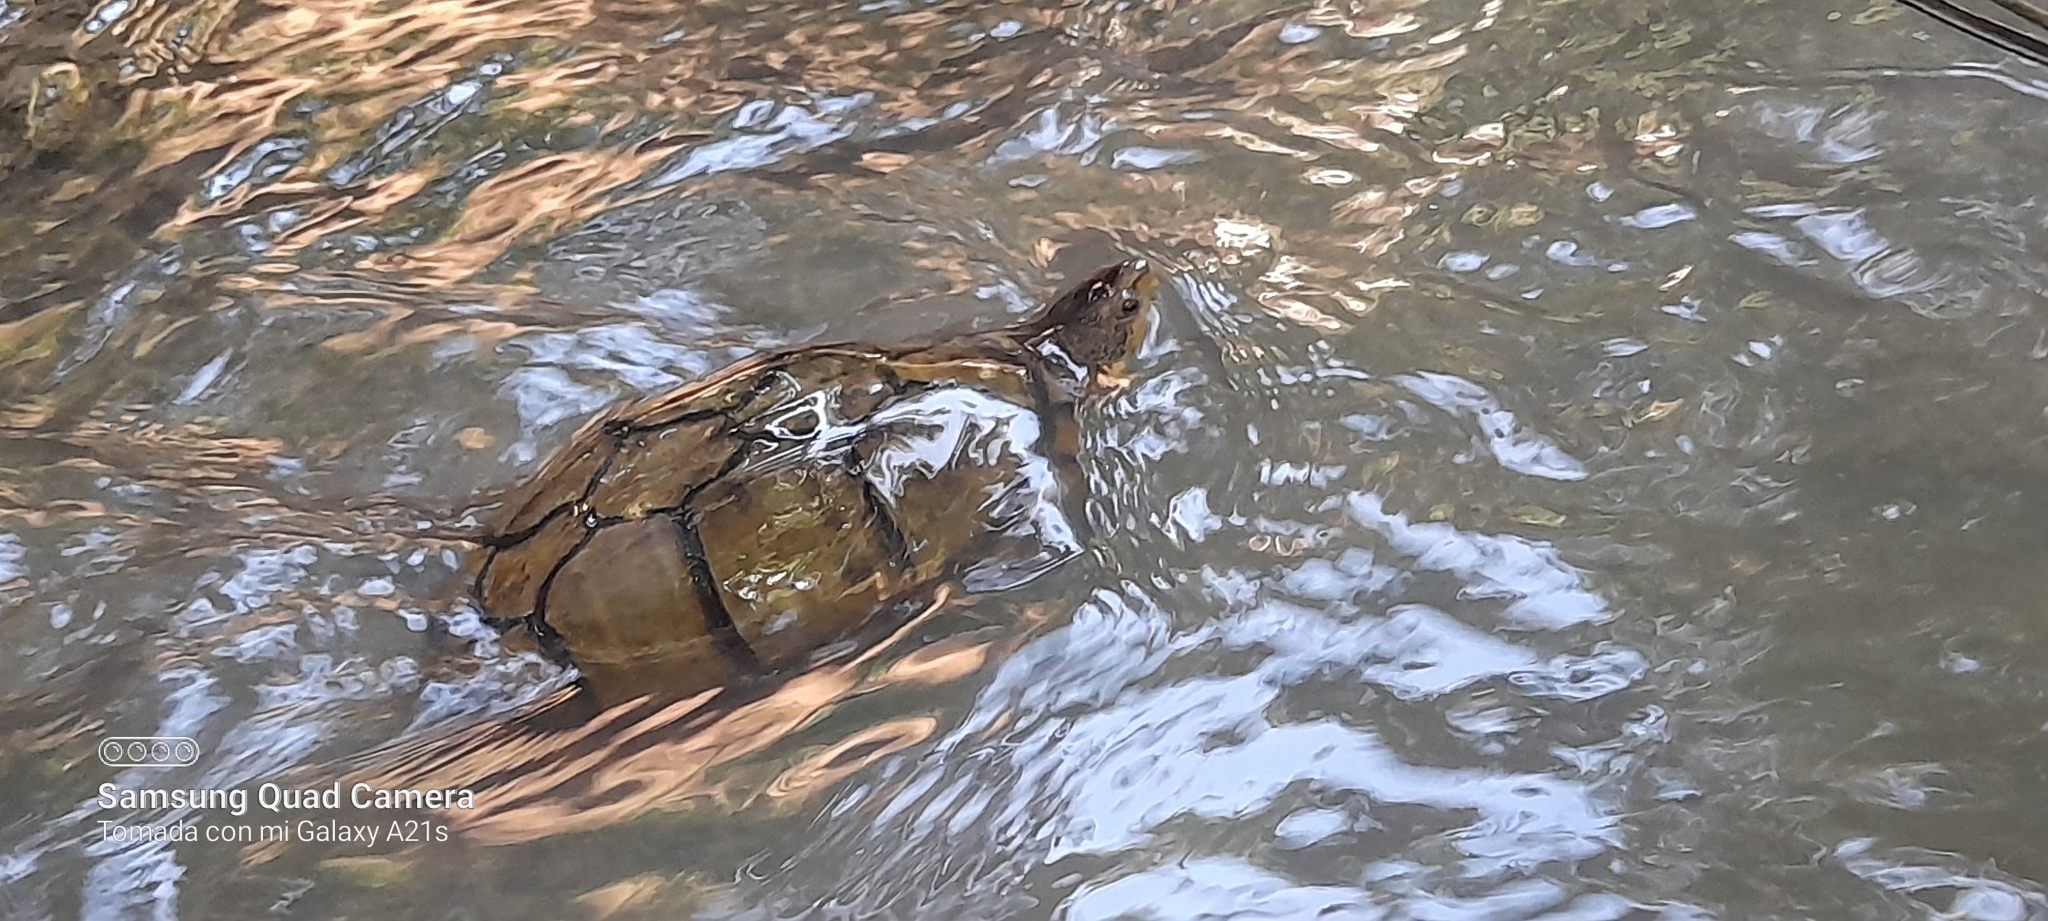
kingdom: Animalia
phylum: Chordata
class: Testudines
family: Kinosternidae
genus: Kinosternon
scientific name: Kinosternon scorpioides
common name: Scorpion mud turtle
